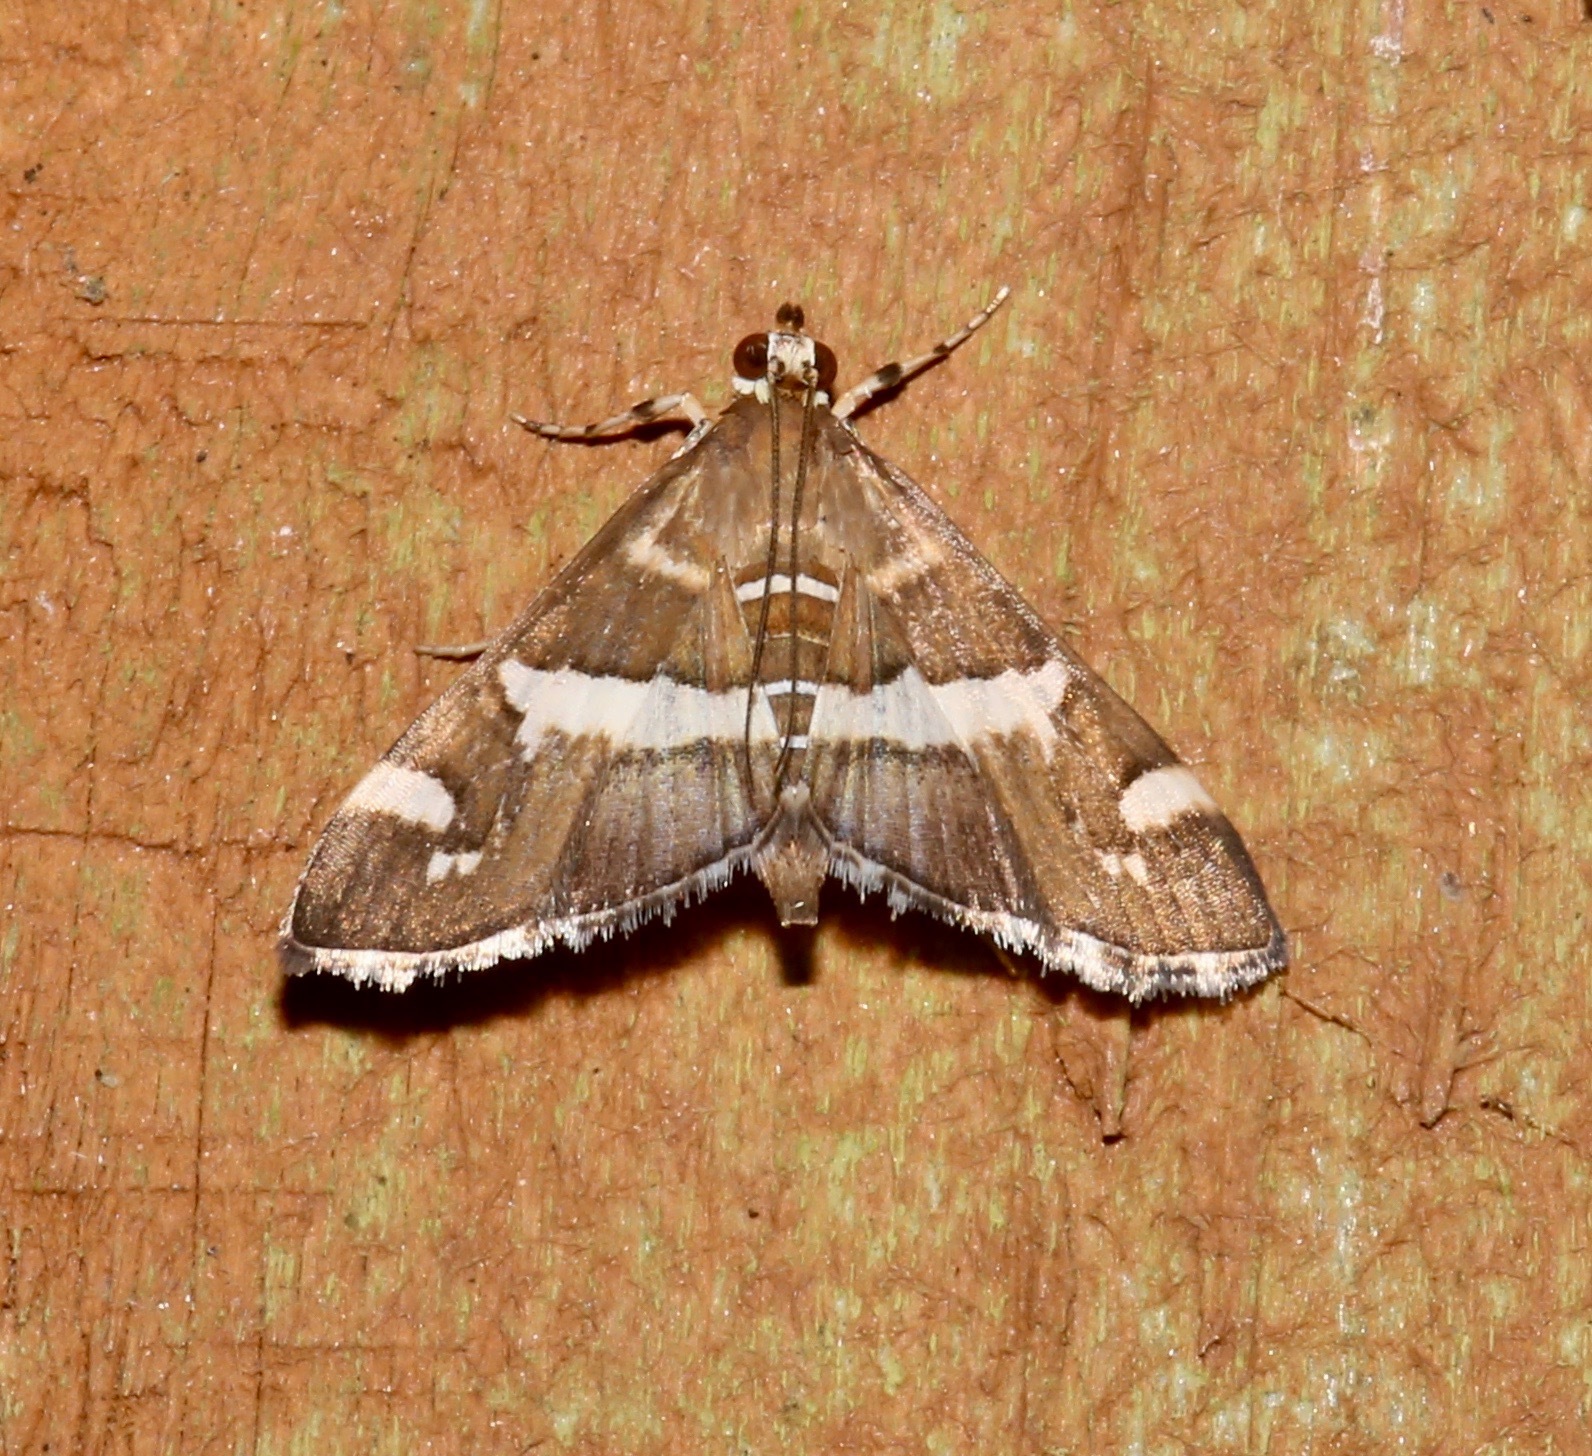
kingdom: Animalia
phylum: Arthropoda
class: Insecta
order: Lepidoptera
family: Crambidae
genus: Spoladea
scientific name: Spoladea recurvalis
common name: Beet webworm moth
